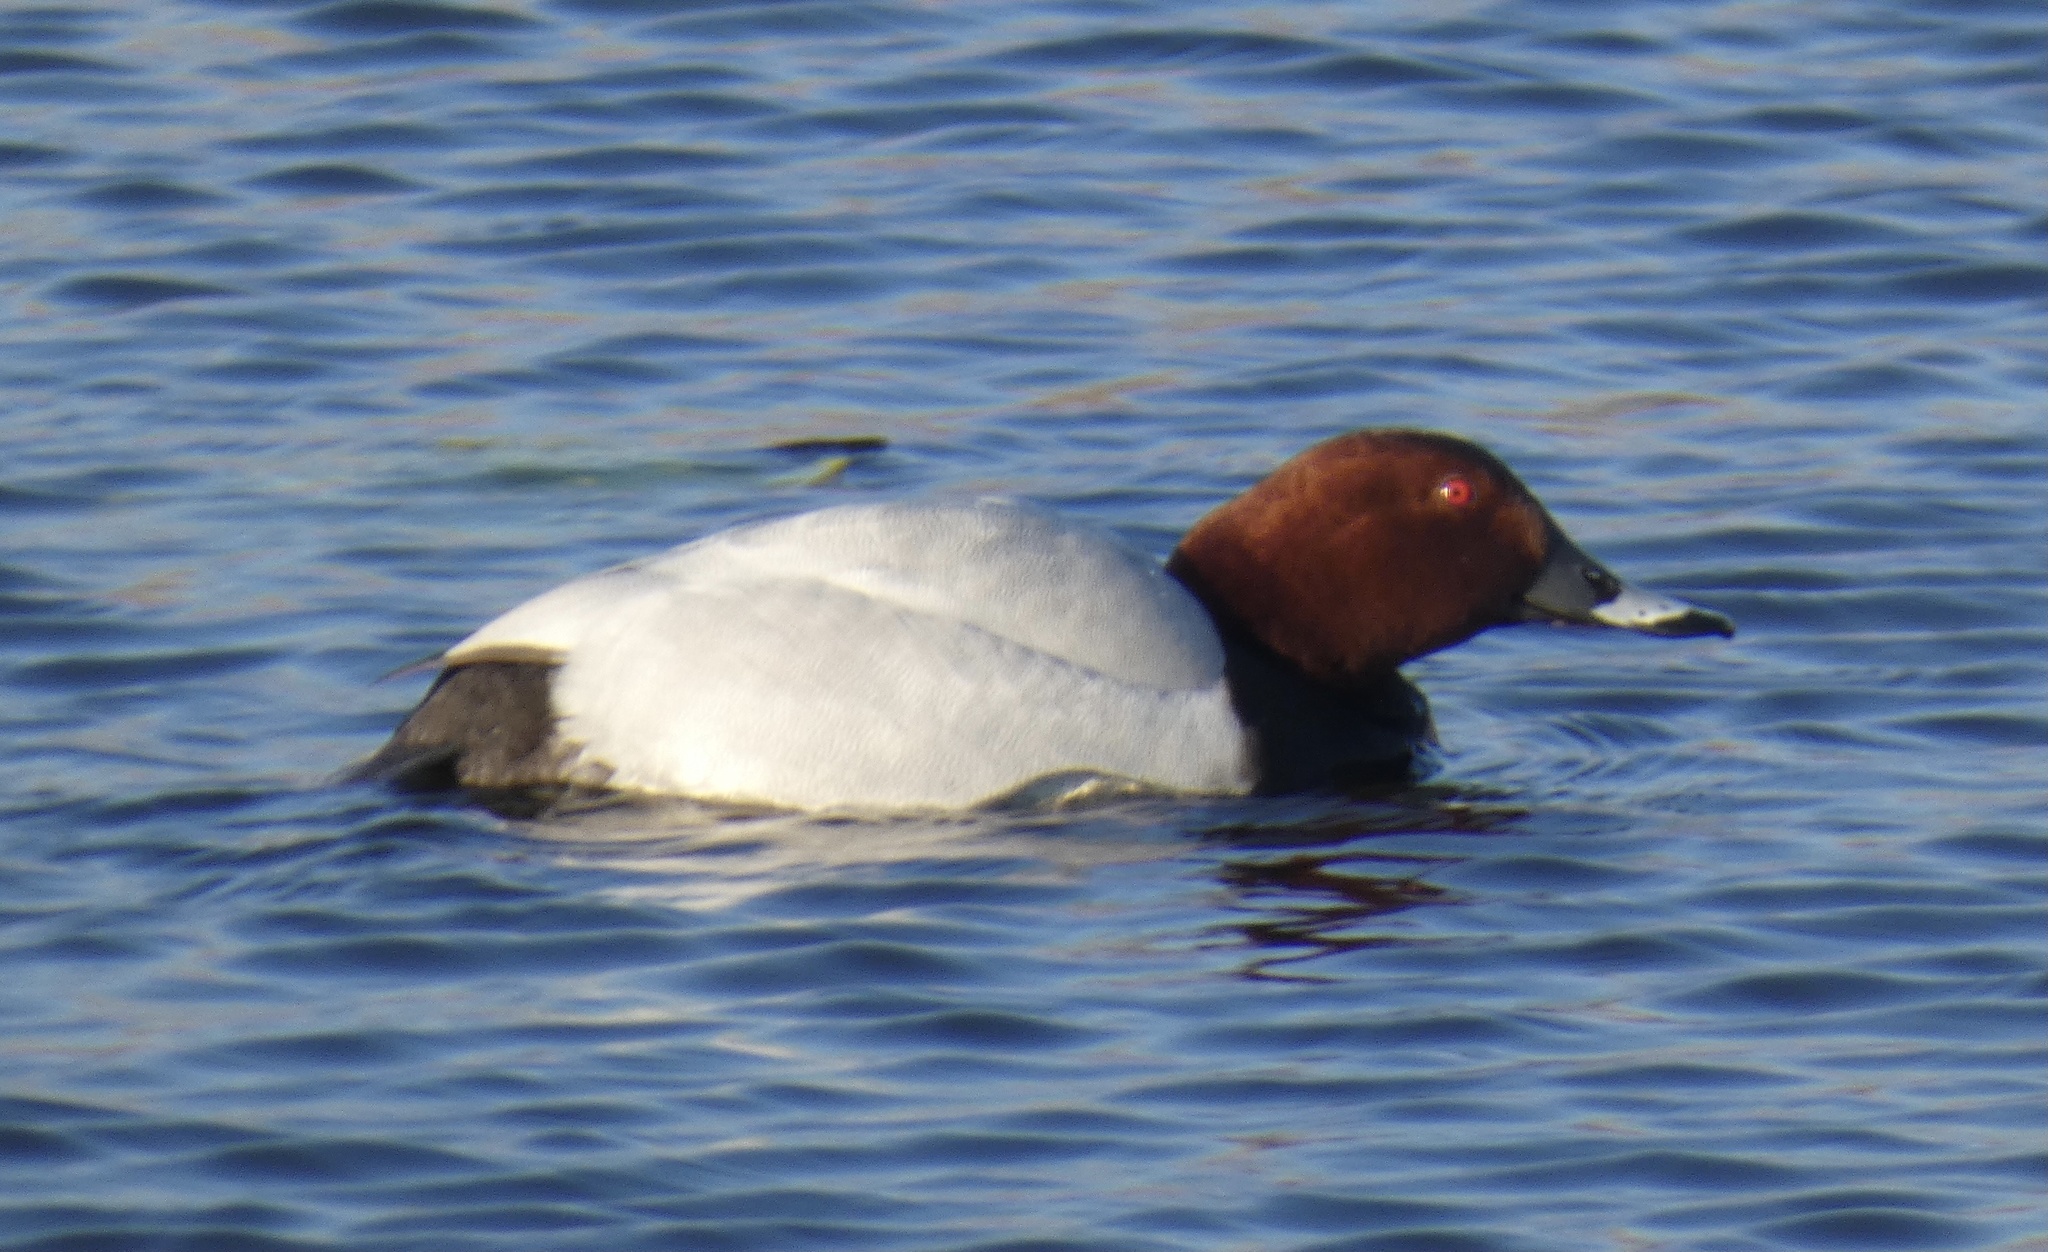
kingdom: Animalia
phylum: Chordata
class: Aves
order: Anseriformes
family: Anatidae
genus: Aythya
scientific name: Aythya ferina
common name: Common pochard
